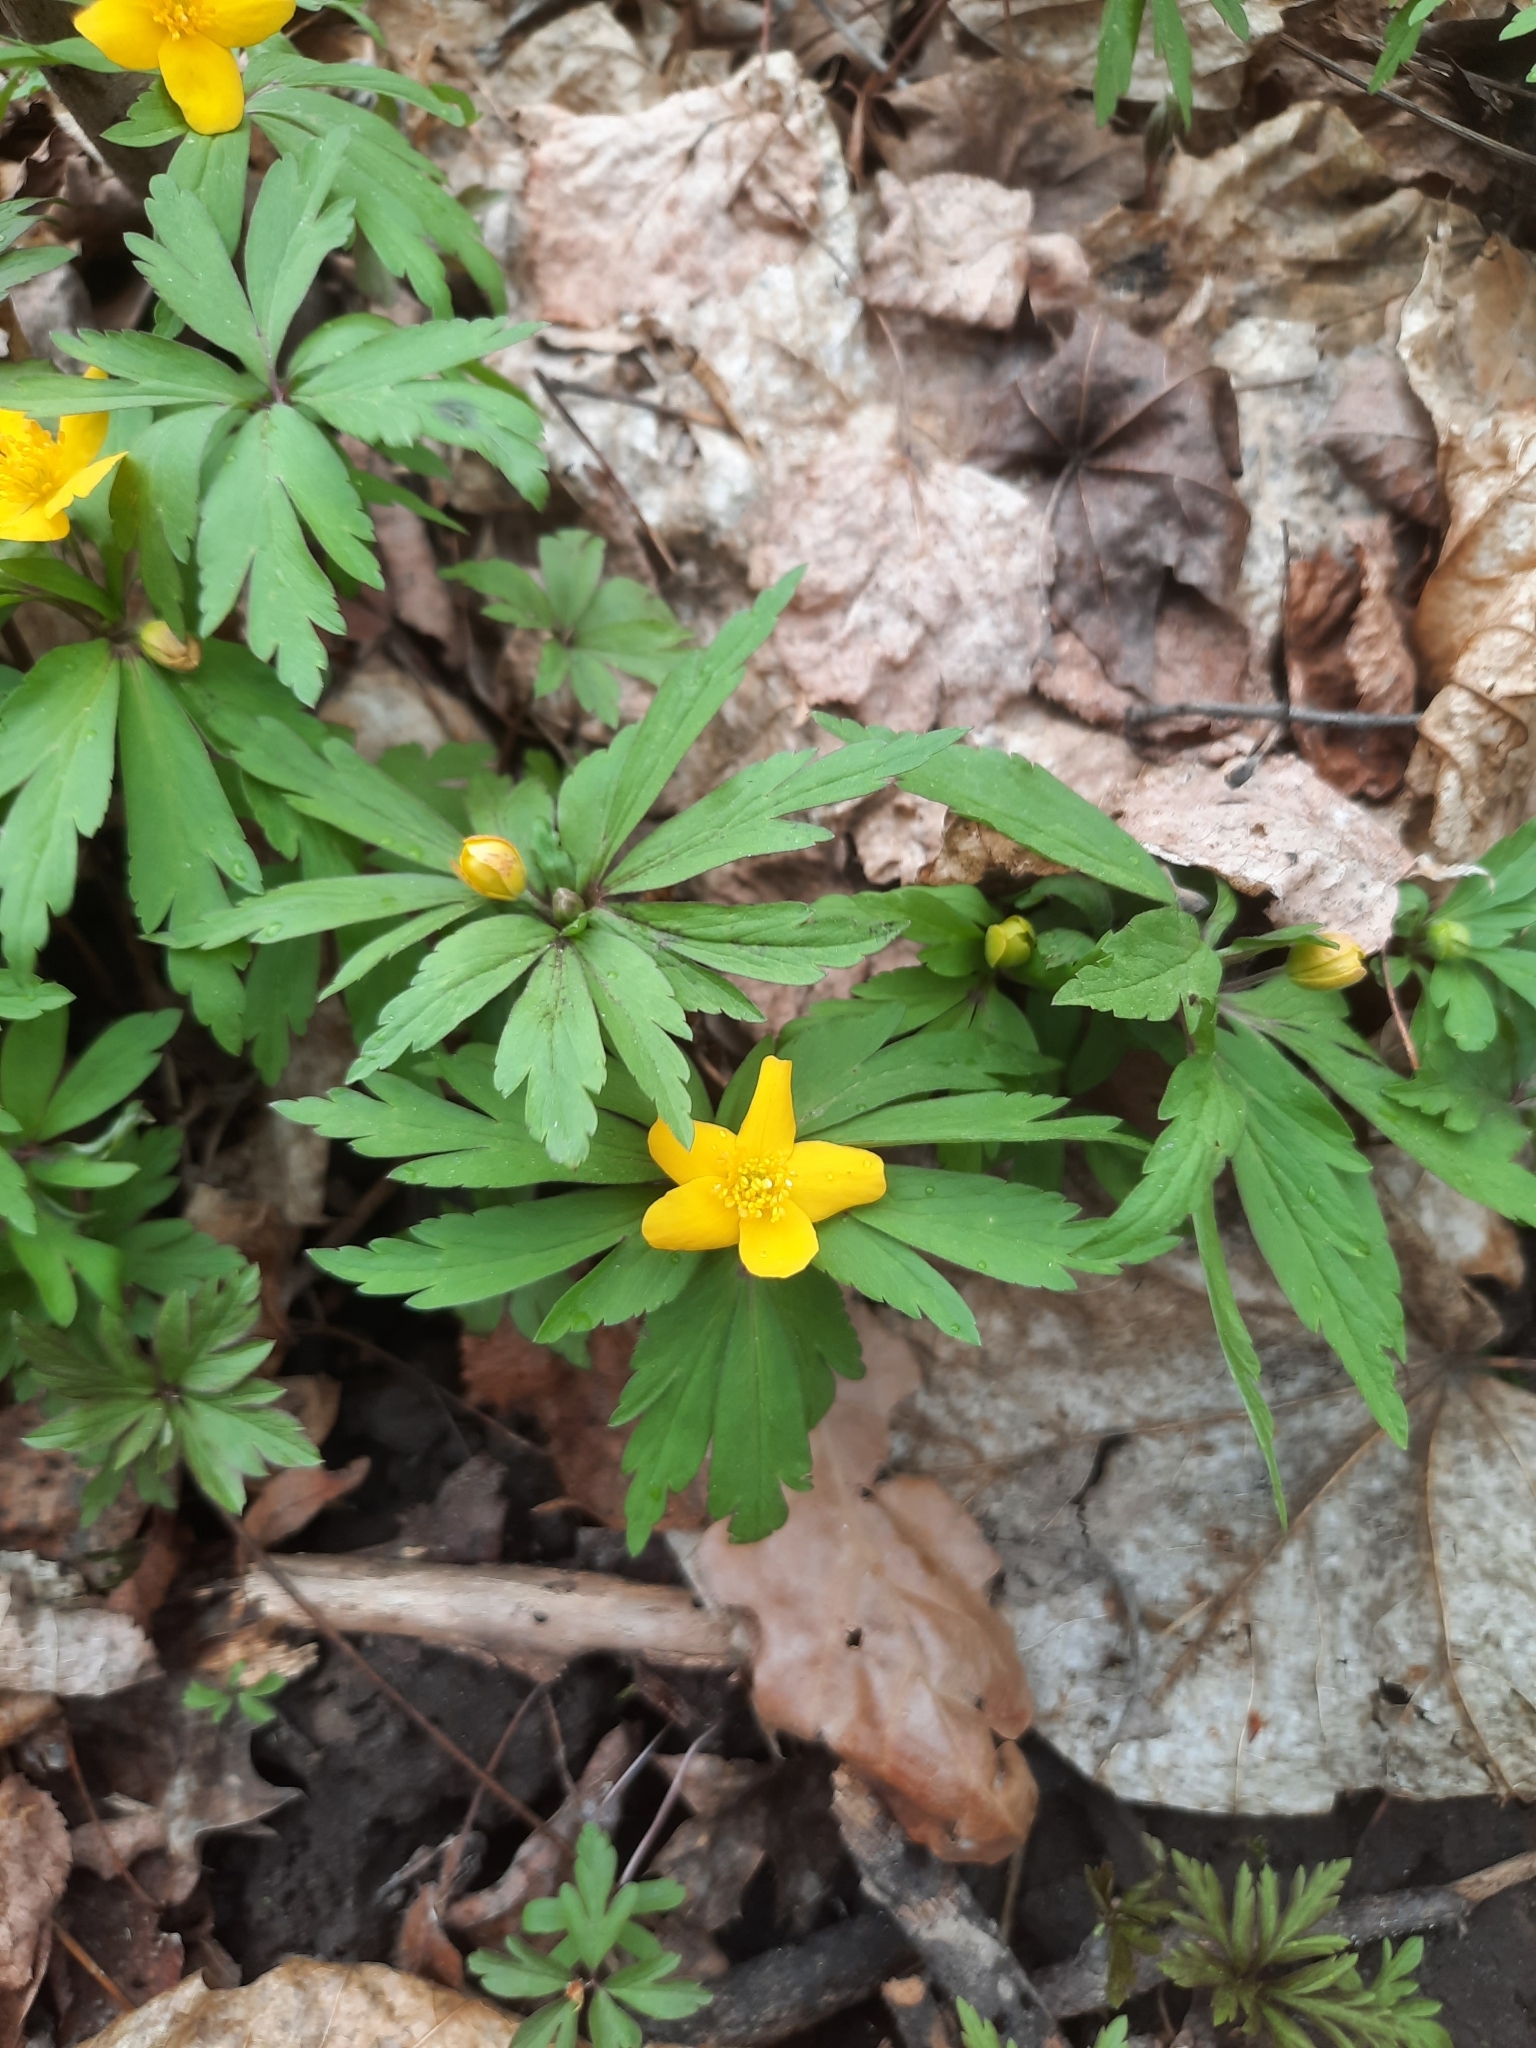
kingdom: Plantae
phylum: Tracheophyta
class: Magnoliopsida
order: Ranunculales
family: Ranunculaceae
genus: Anemone
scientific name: Anemone ranunculoides
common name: Yellow anemone
